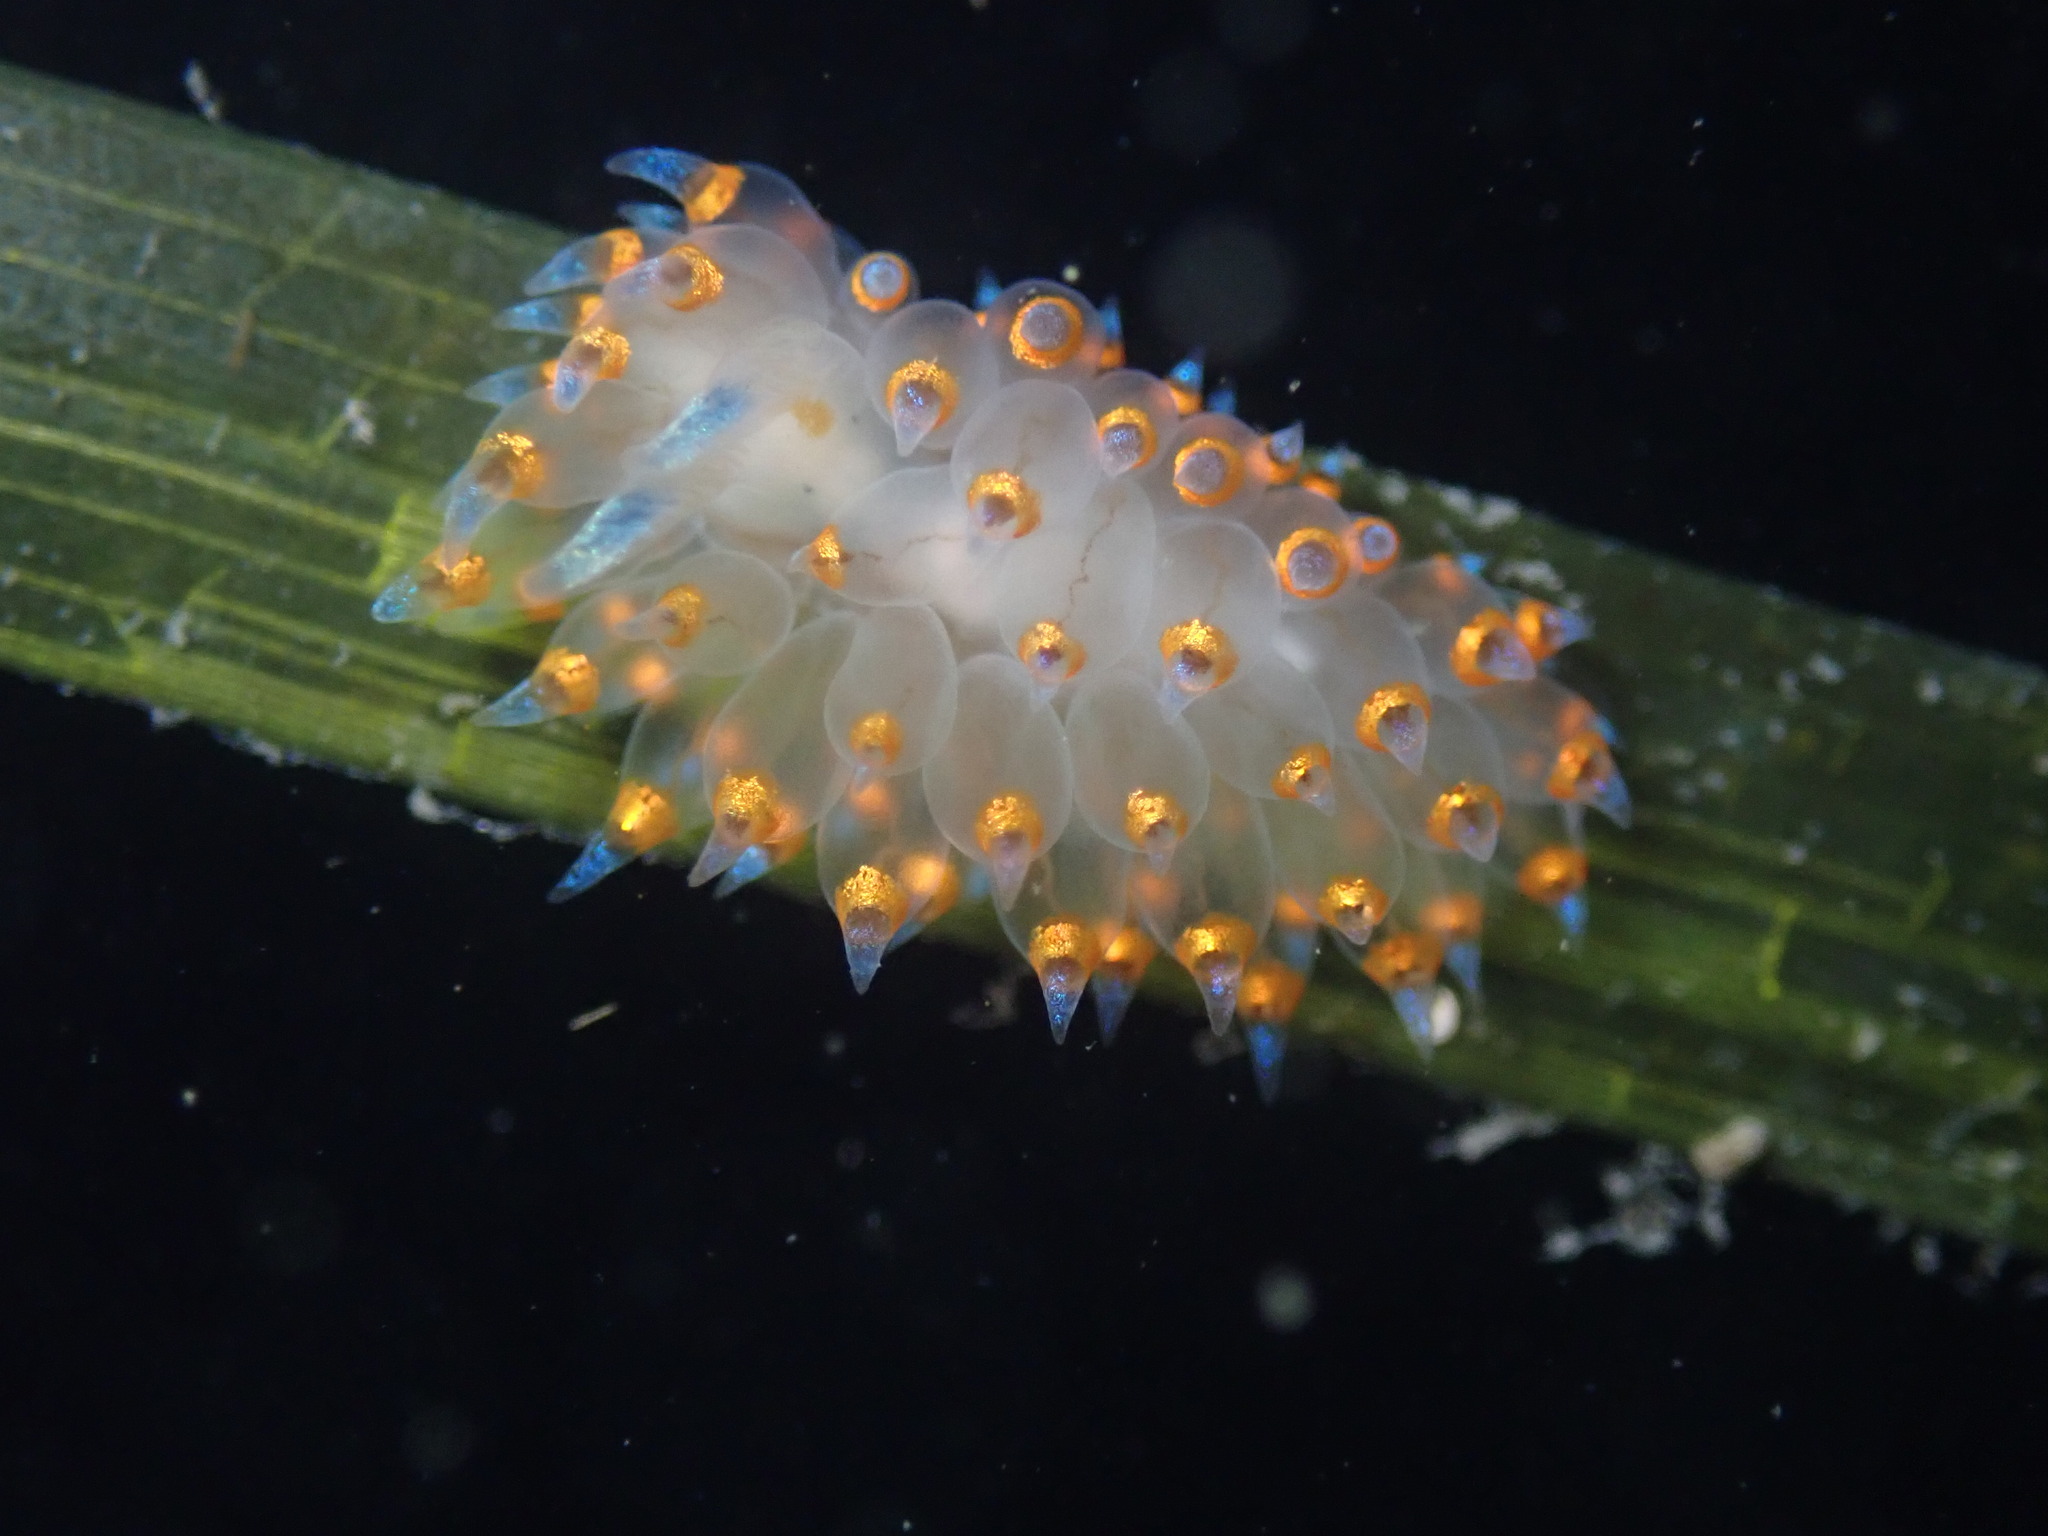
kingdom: Animalia
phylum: Mollusca
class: Gastropoda
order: Nudibranchia
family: Janolidae
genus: Antiopella
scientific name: Antiopella barbarensis
